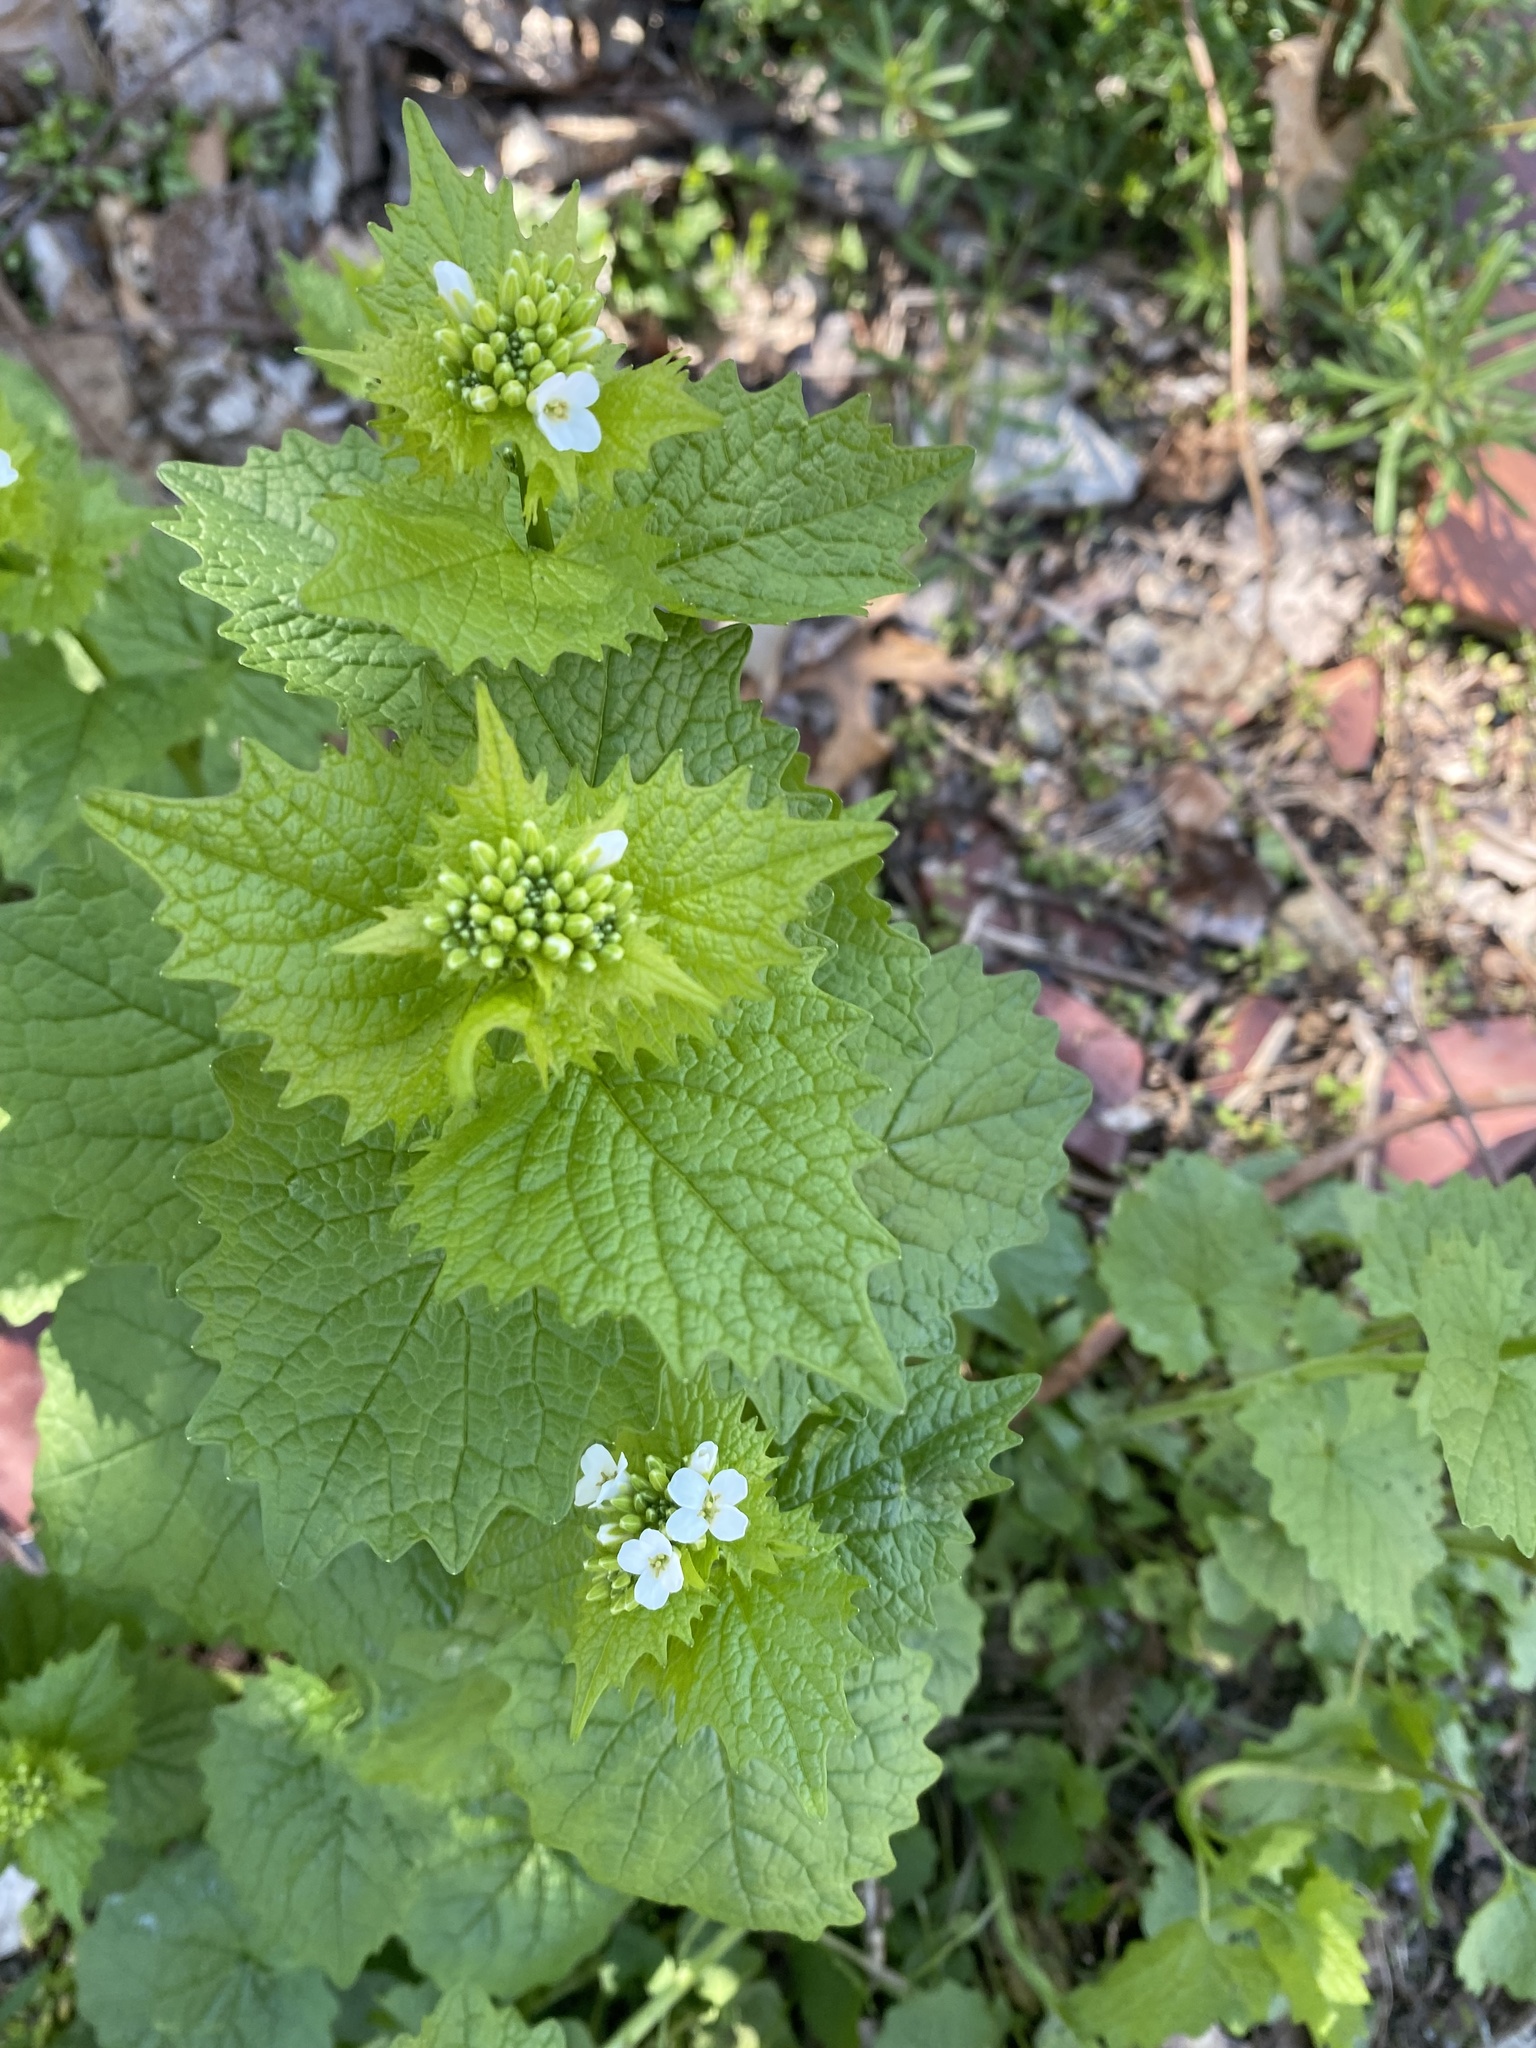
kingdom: Plantae
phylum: Tracheophyta
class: Magnoliopsida
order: Brassicales
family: Brassicaceae
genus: Alliaria
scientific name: Alliaria petiolata
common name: Garlic mustard
